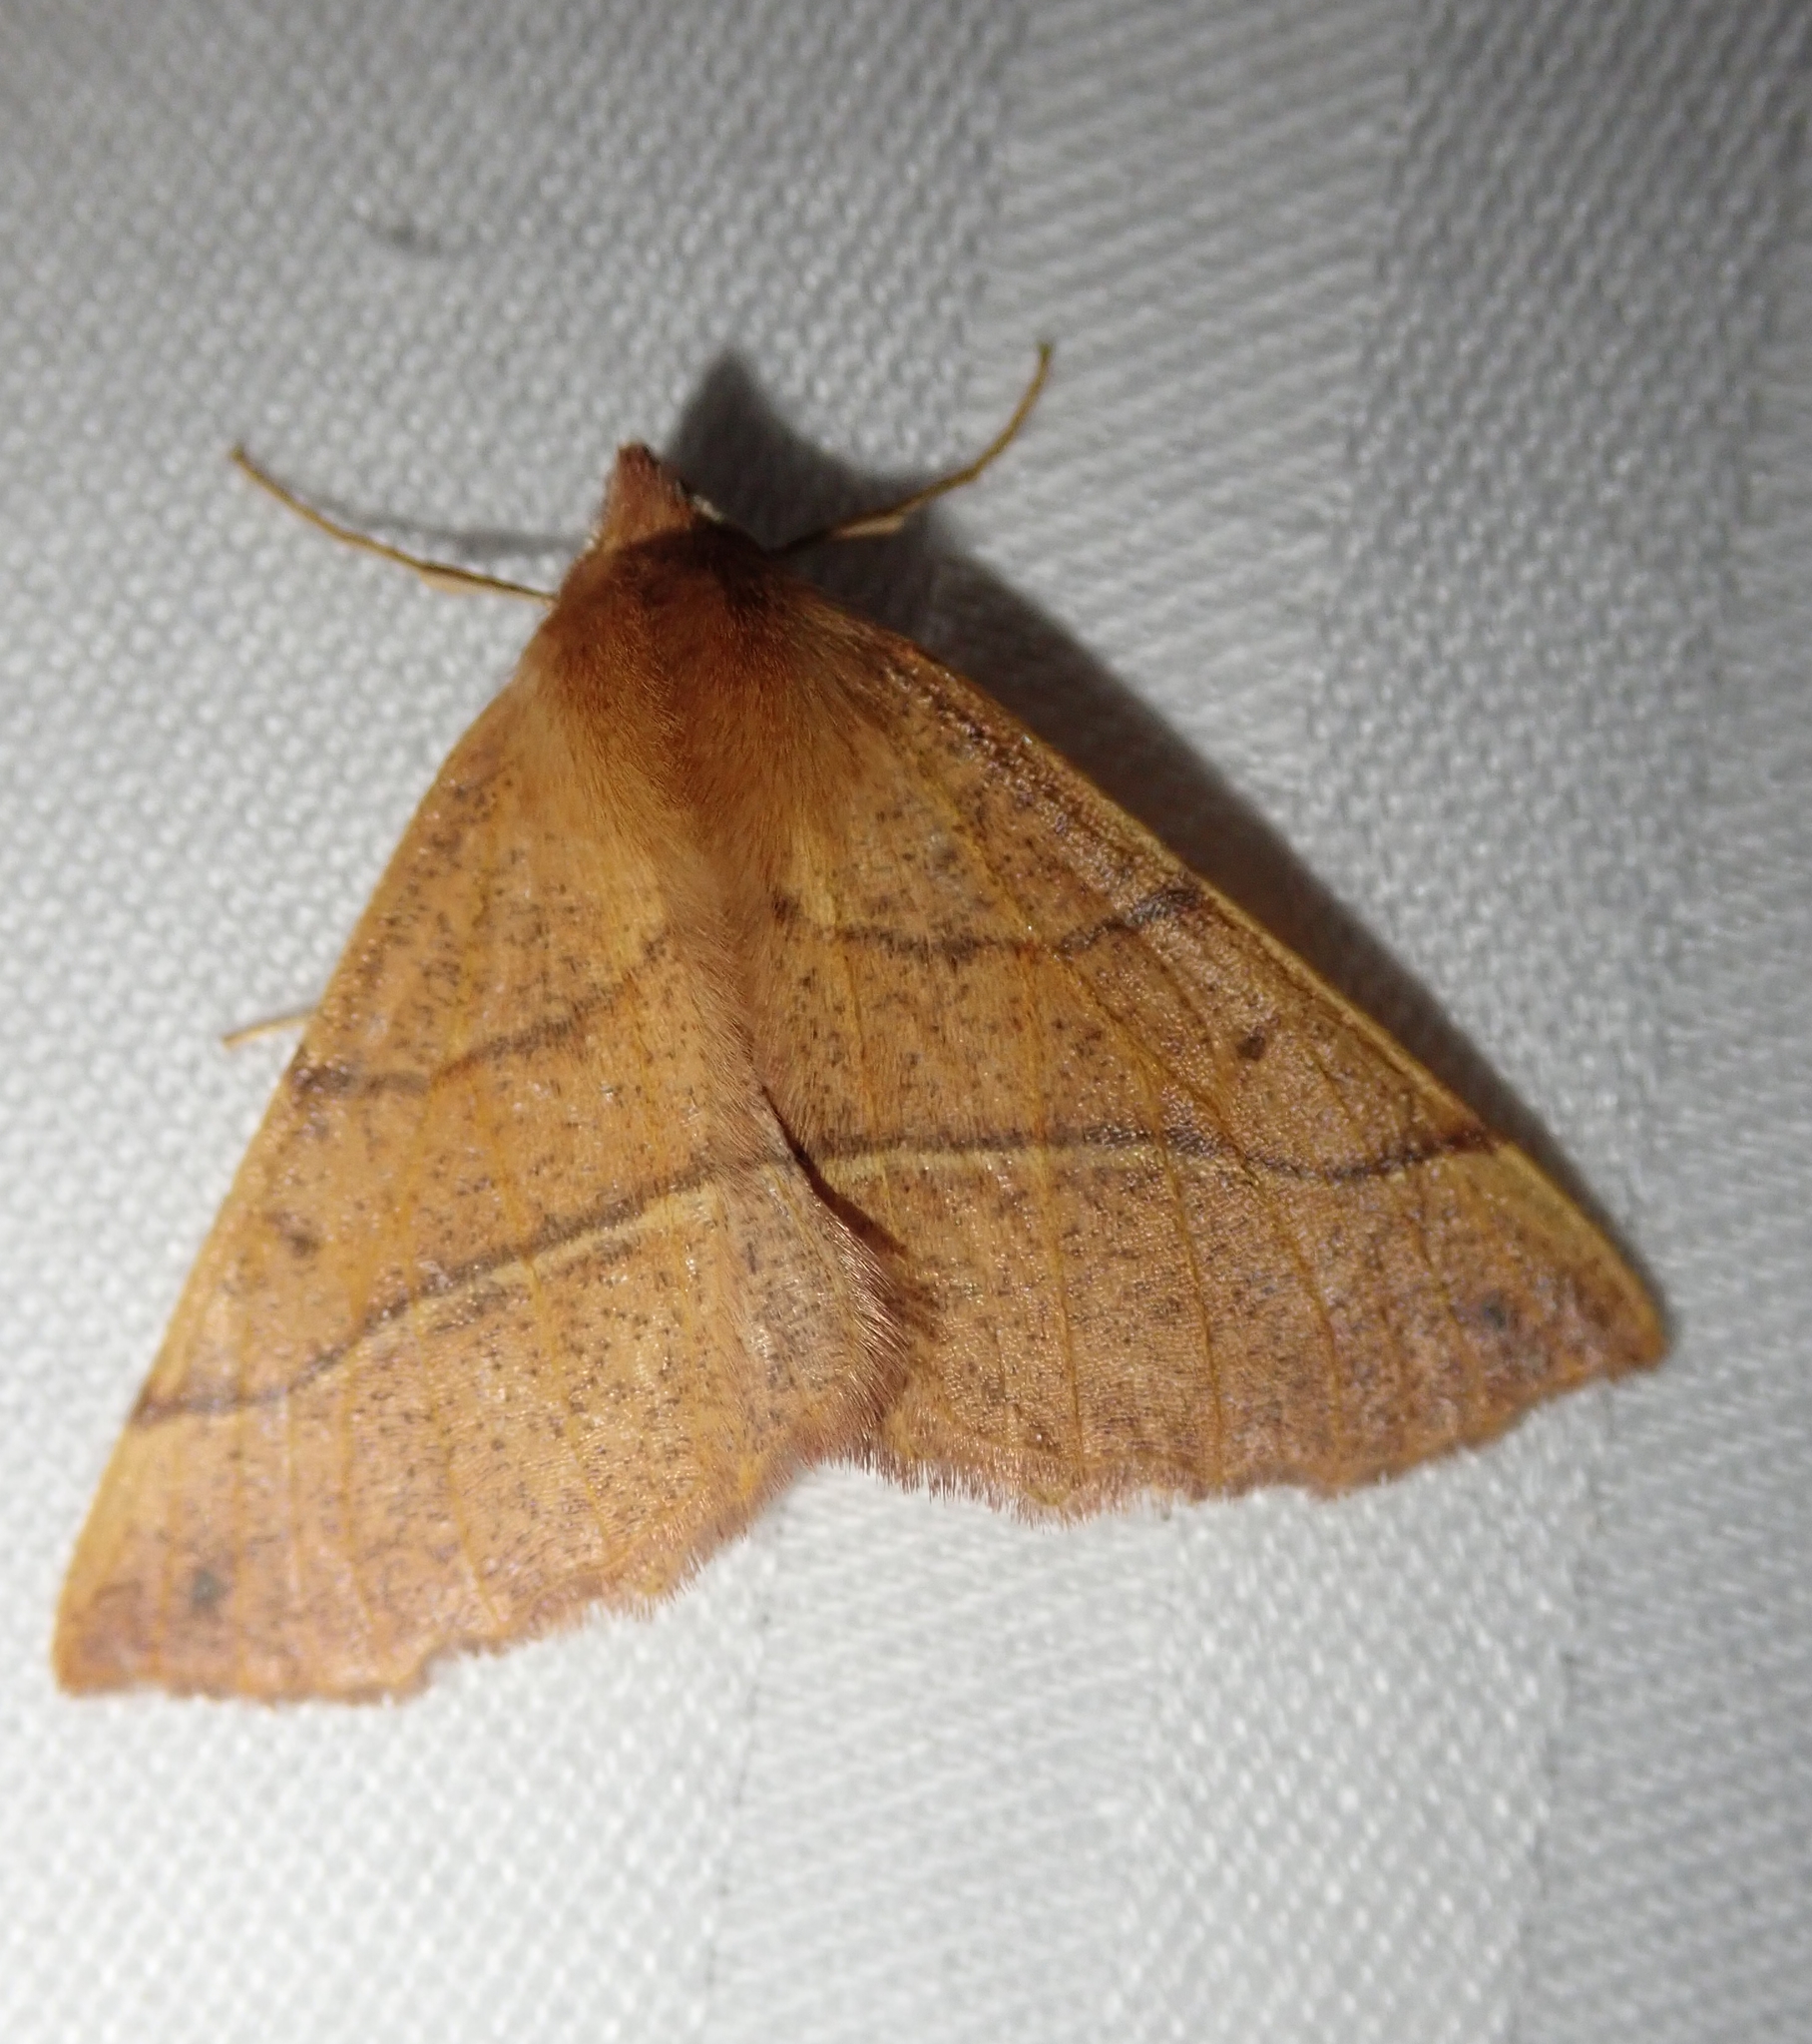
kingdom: Animalia
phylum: Arthropoda
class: Insecta
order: Lepidoptera
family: Geometridae
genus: Colotois
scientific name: Colotois pennaria
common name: Feathered thorn
